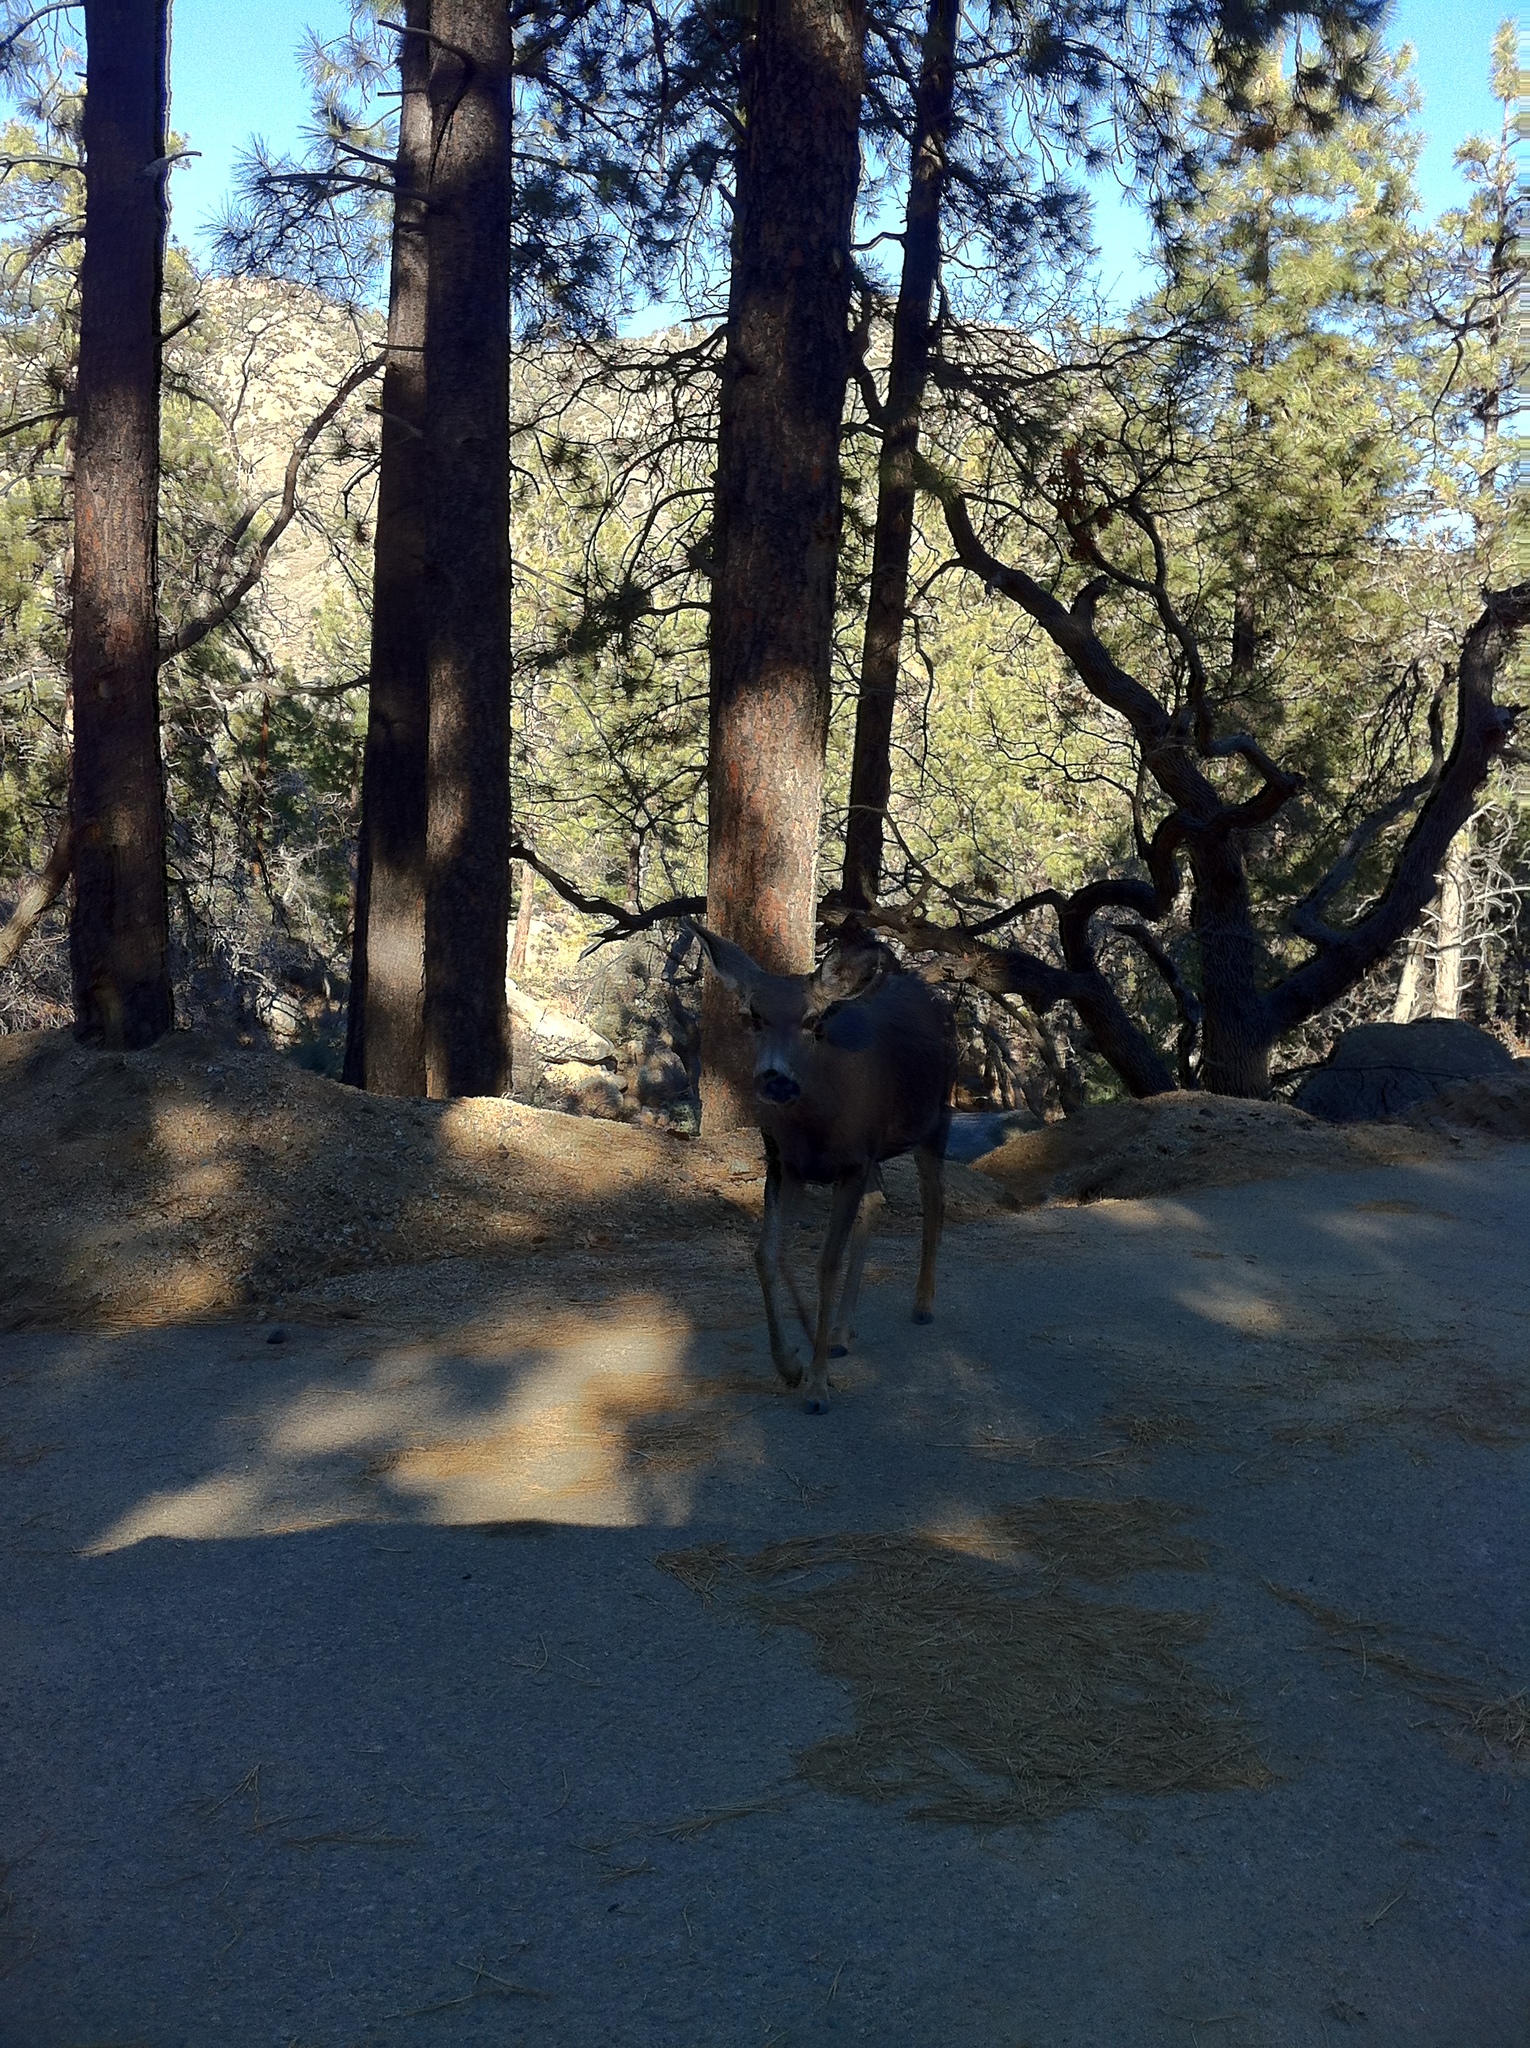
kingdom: Animalia
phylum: Chordata
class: Mammalia
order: Artiodactyla
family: Cervidae
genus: Odocoileus
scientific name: Odocoileus hemionus
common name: Mule deer
